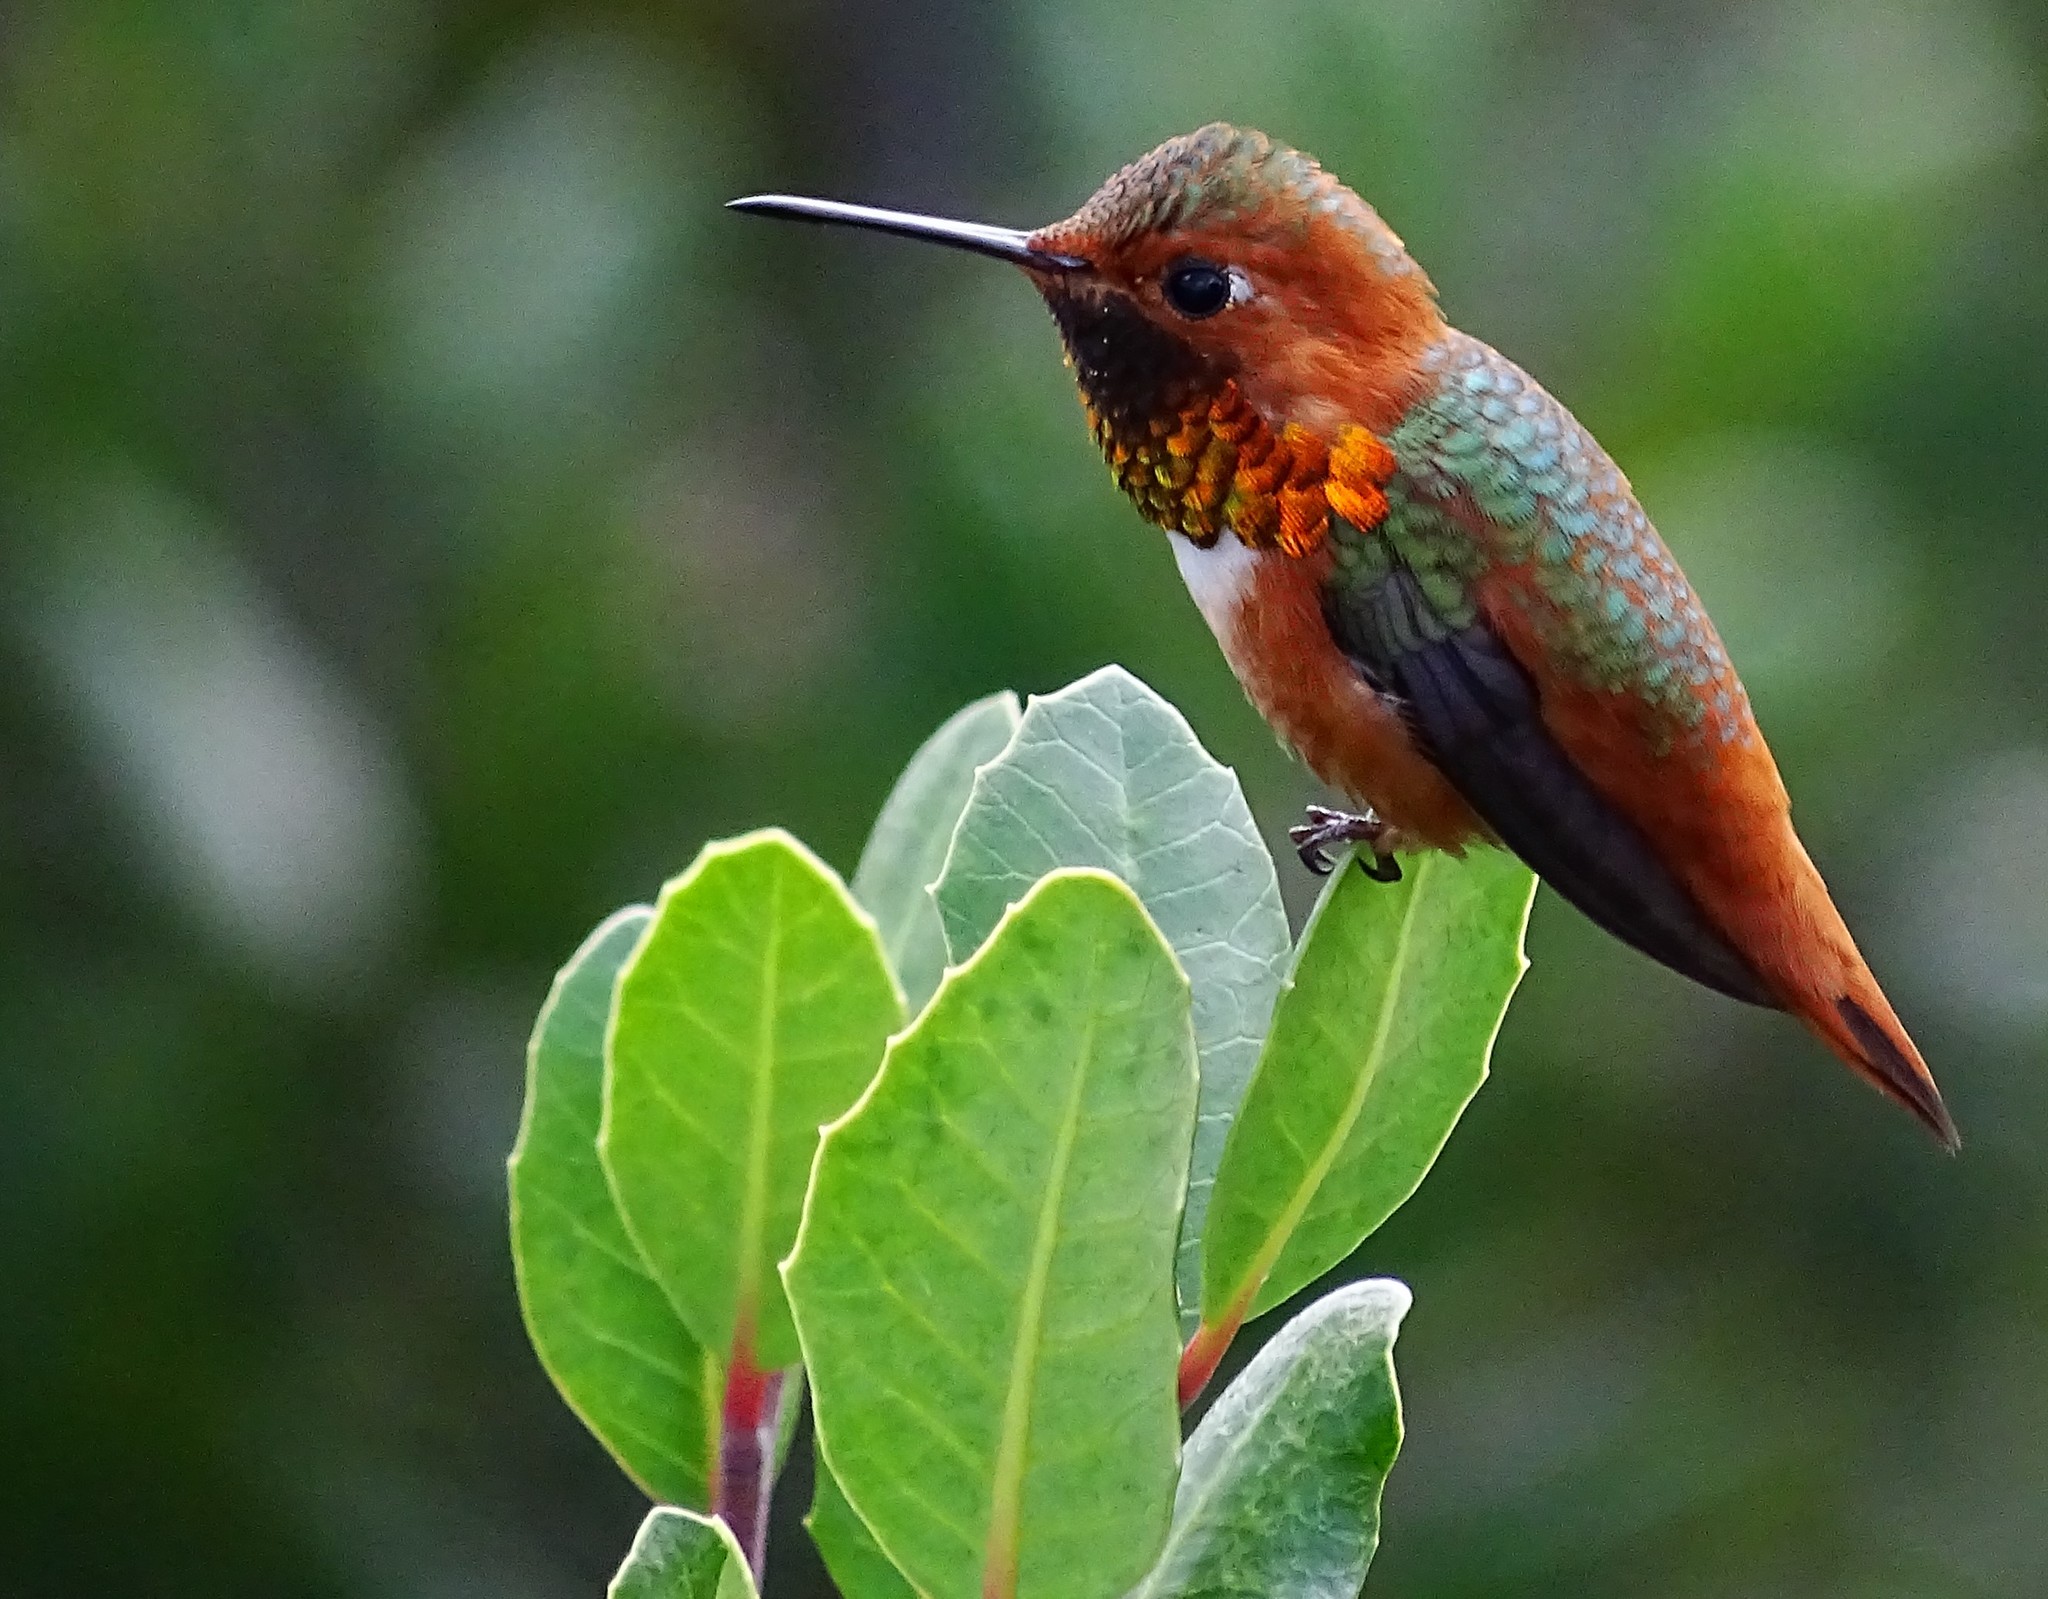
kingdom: Animalia
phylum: Chordata
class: Aves
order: Apodiformes
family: Trochilidae
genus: Selasphorus
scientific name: Selasphorus sasin
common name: Allen's hummingbird
